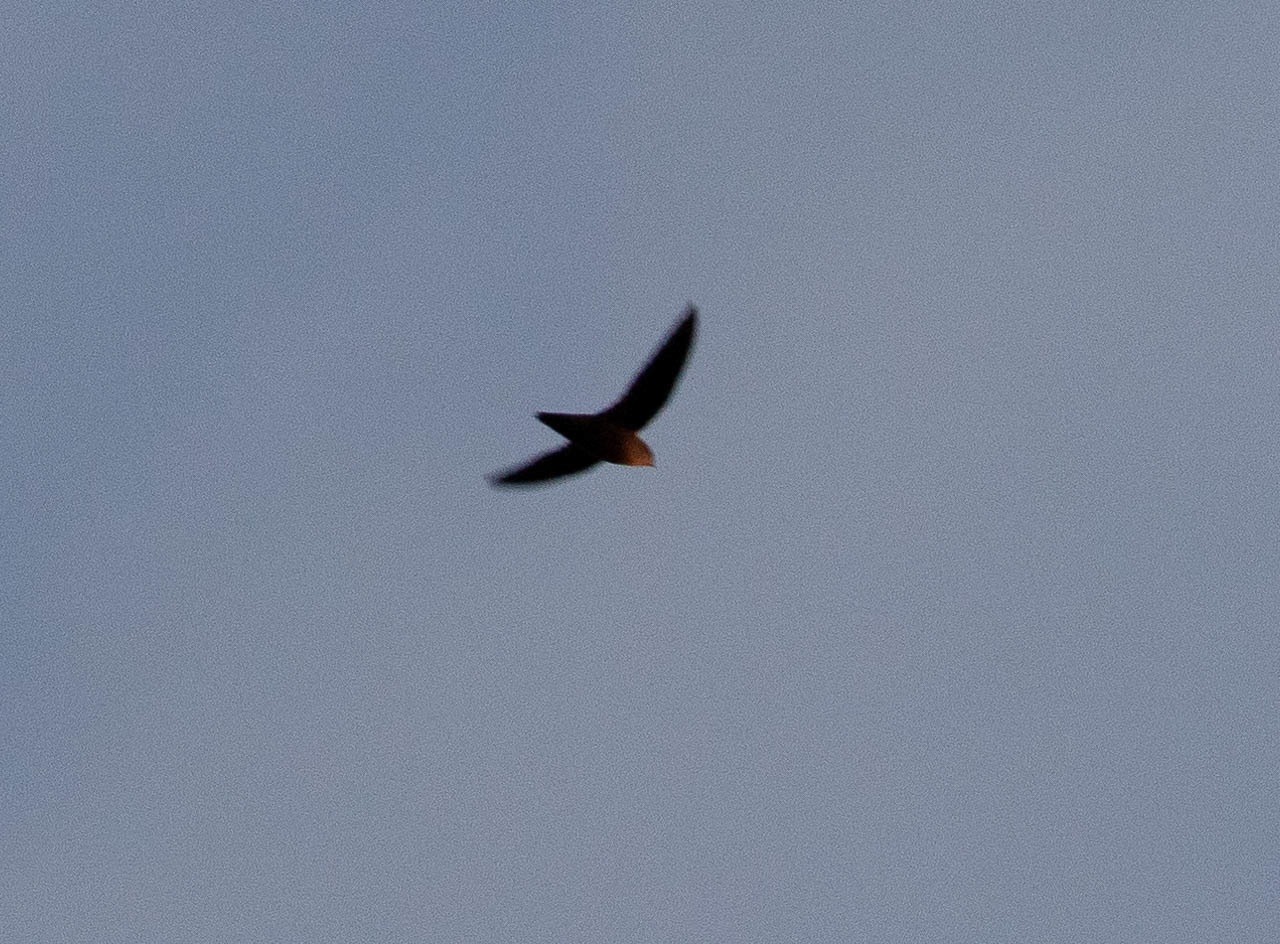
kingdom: Animalia
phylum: Chordata
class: Aves
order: Apodiformes
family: Apodidae
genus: Chaetura
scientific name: Chaetura pelagica
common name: Chimney swift
